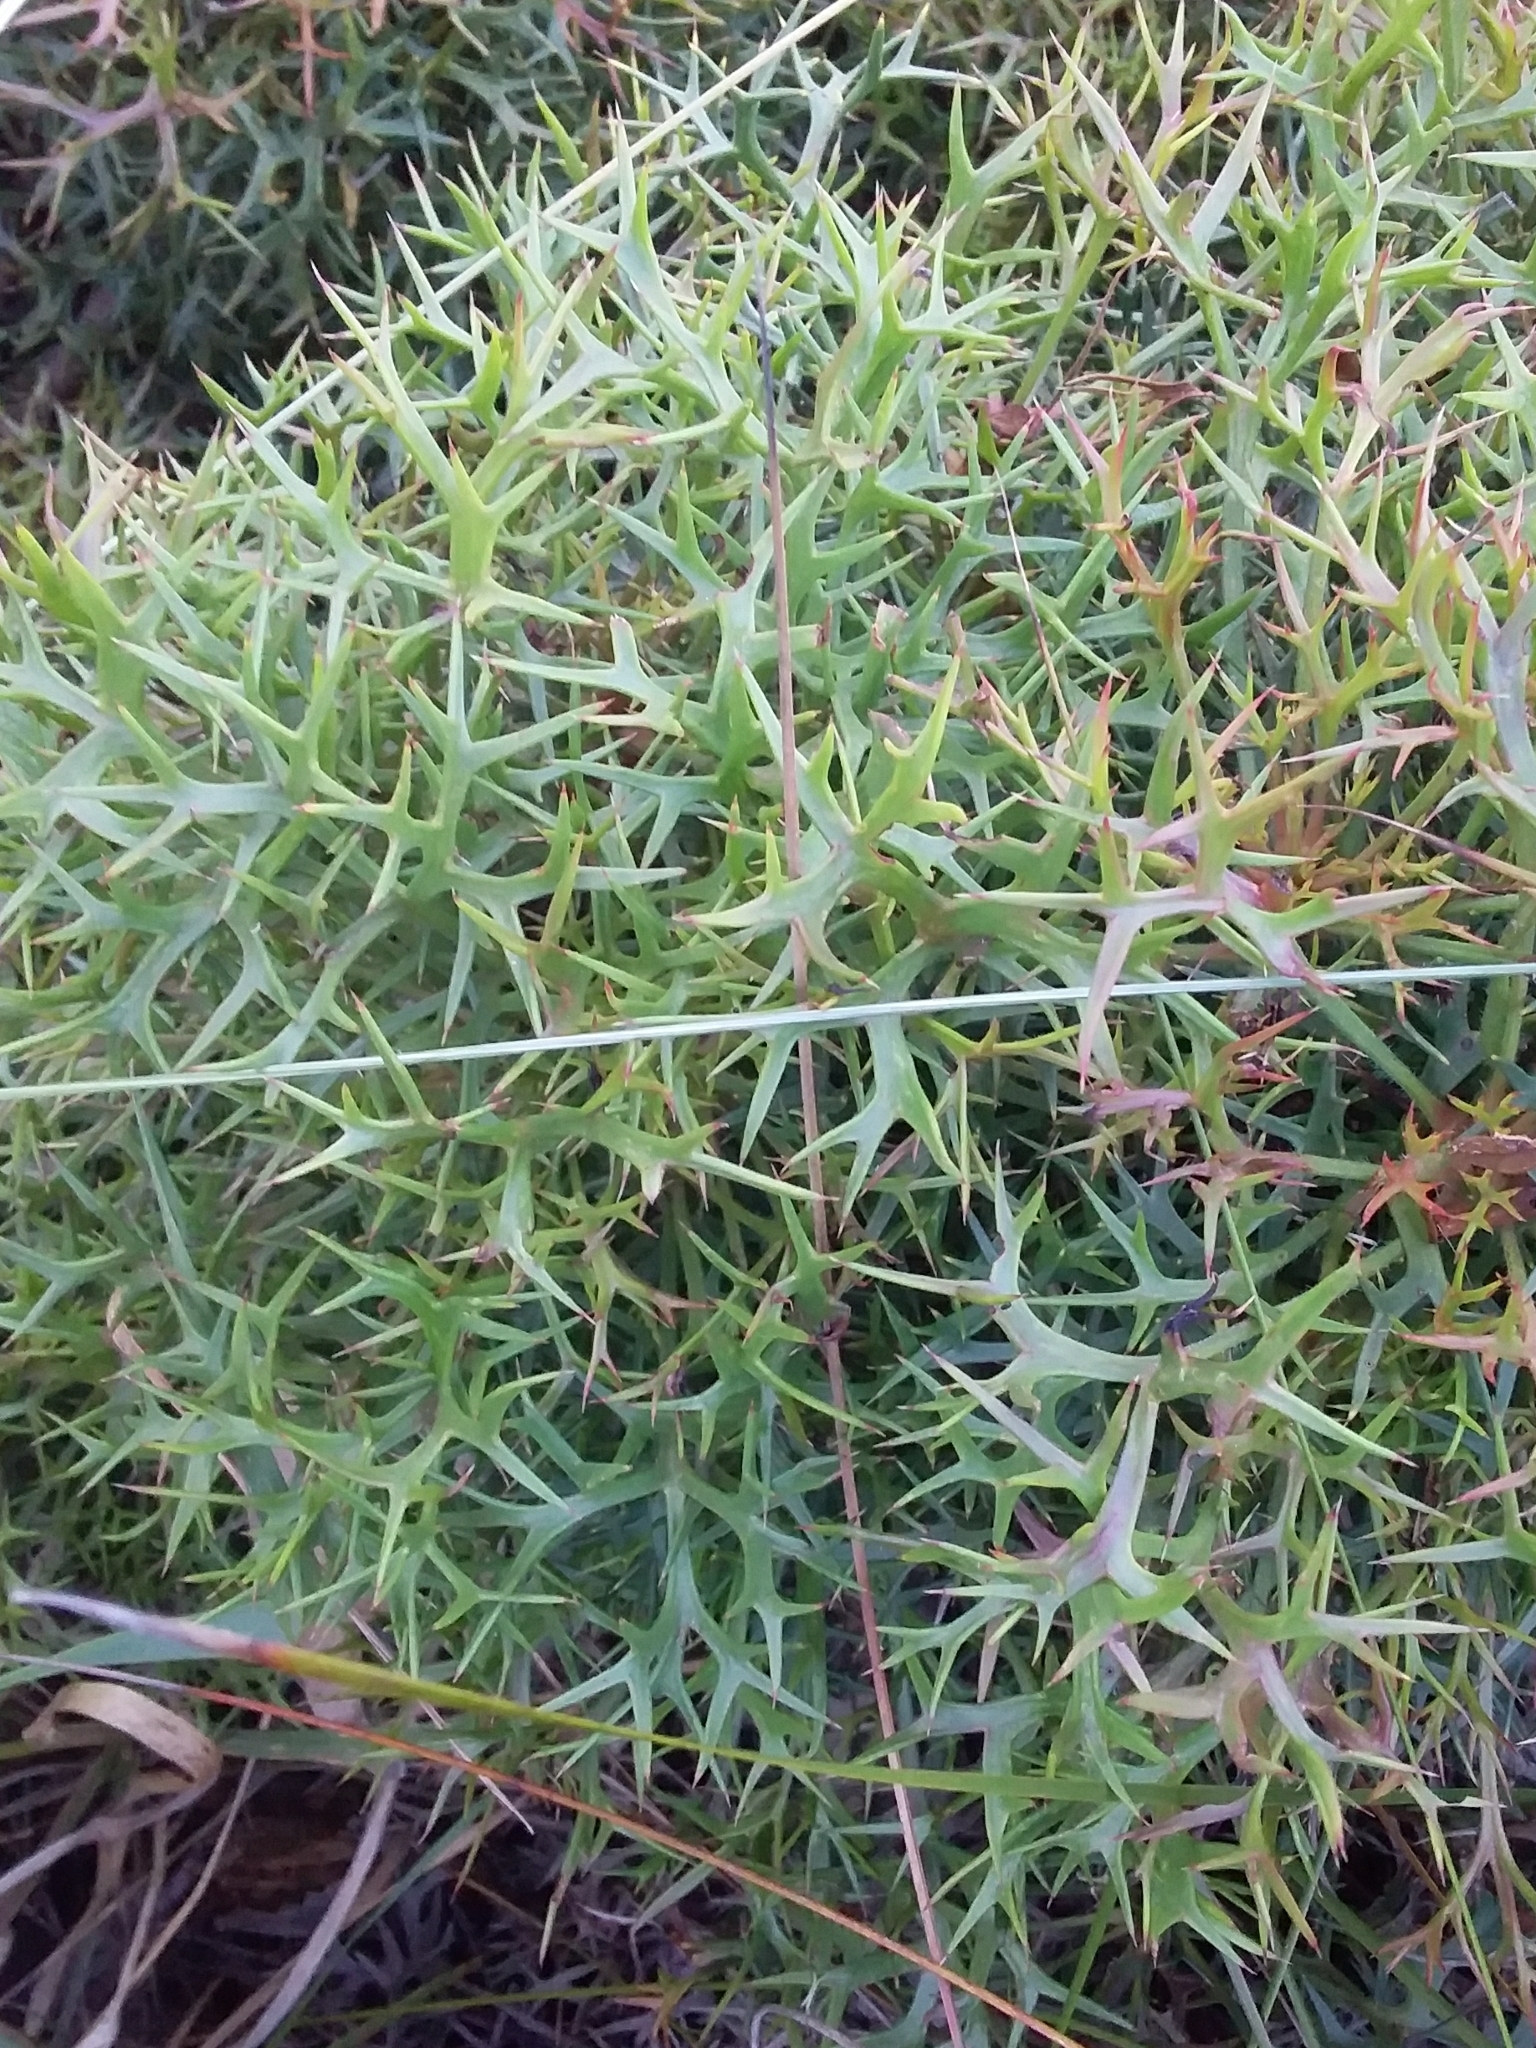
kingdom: Plantae
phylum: Tracheophyta
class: Magnoliopsida
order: Proteales
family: Proteaceae
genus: Isopogon
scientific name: Isopogon ceratophyllus
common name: Horny cone-bush
